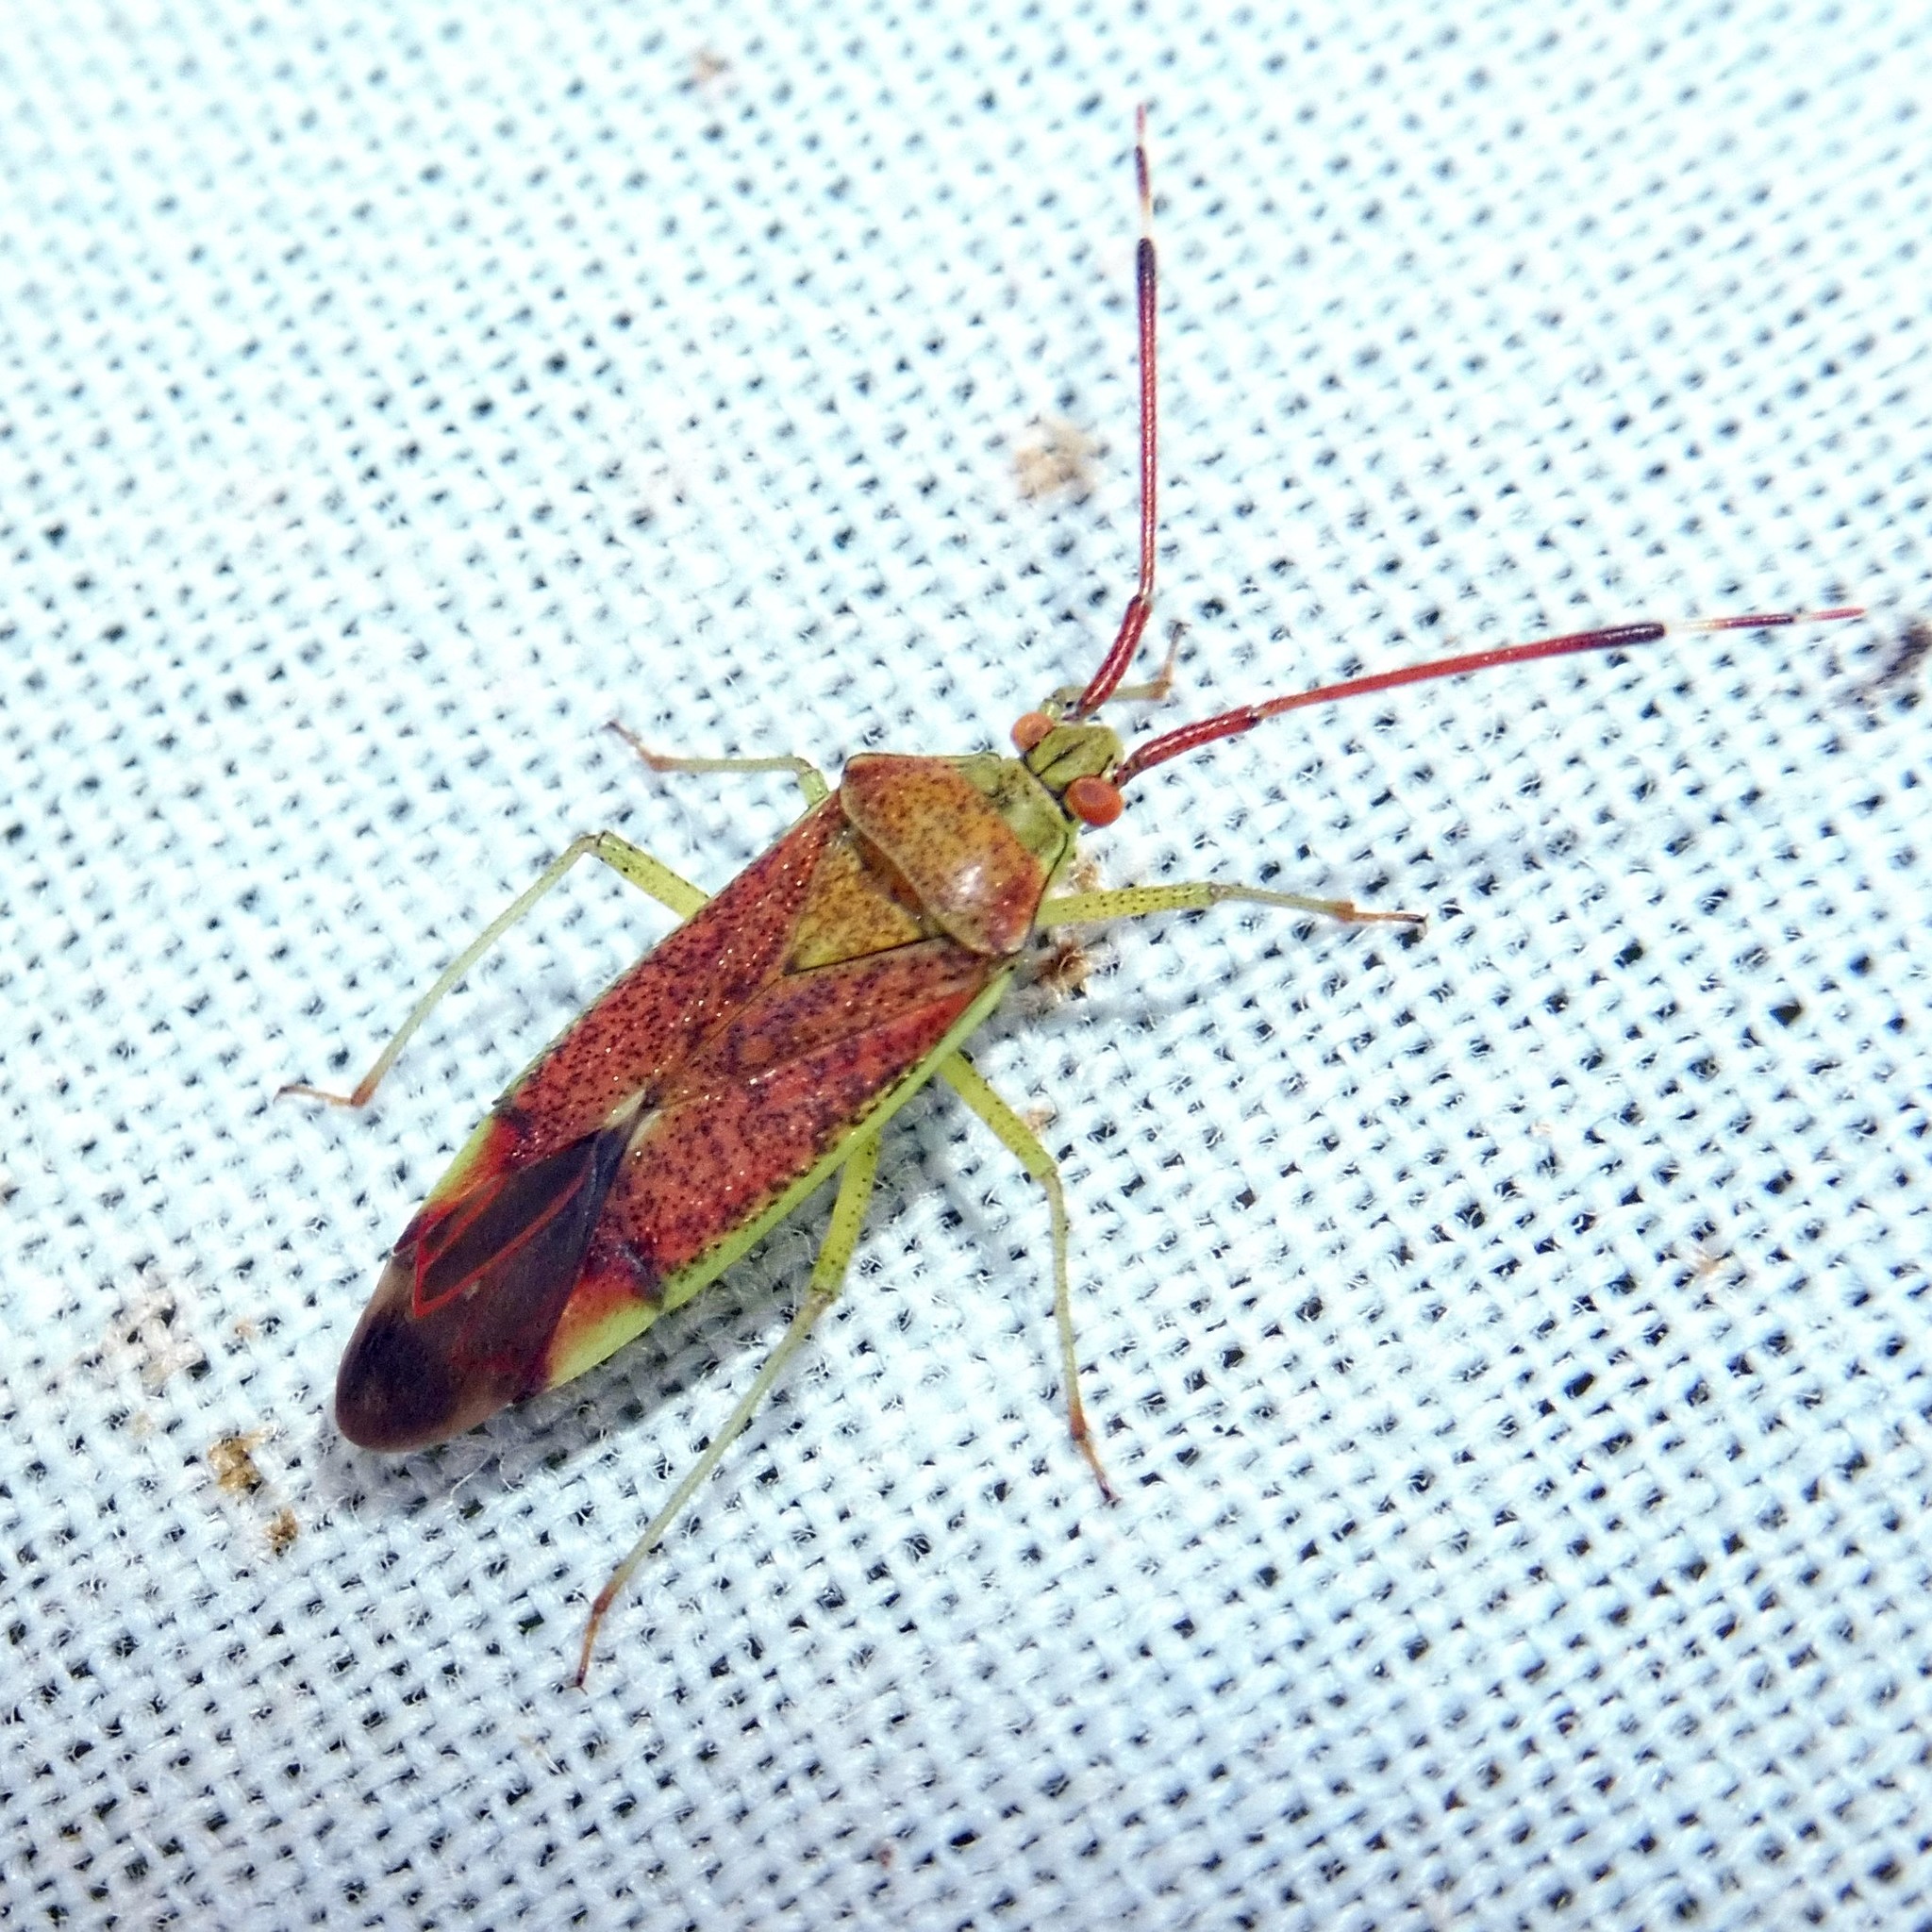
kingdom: Animalia
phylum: Arthropoda
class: Insecta
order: Hemiptera
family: Miridae
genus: Pantilius
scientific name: Pantilius tunicatus
